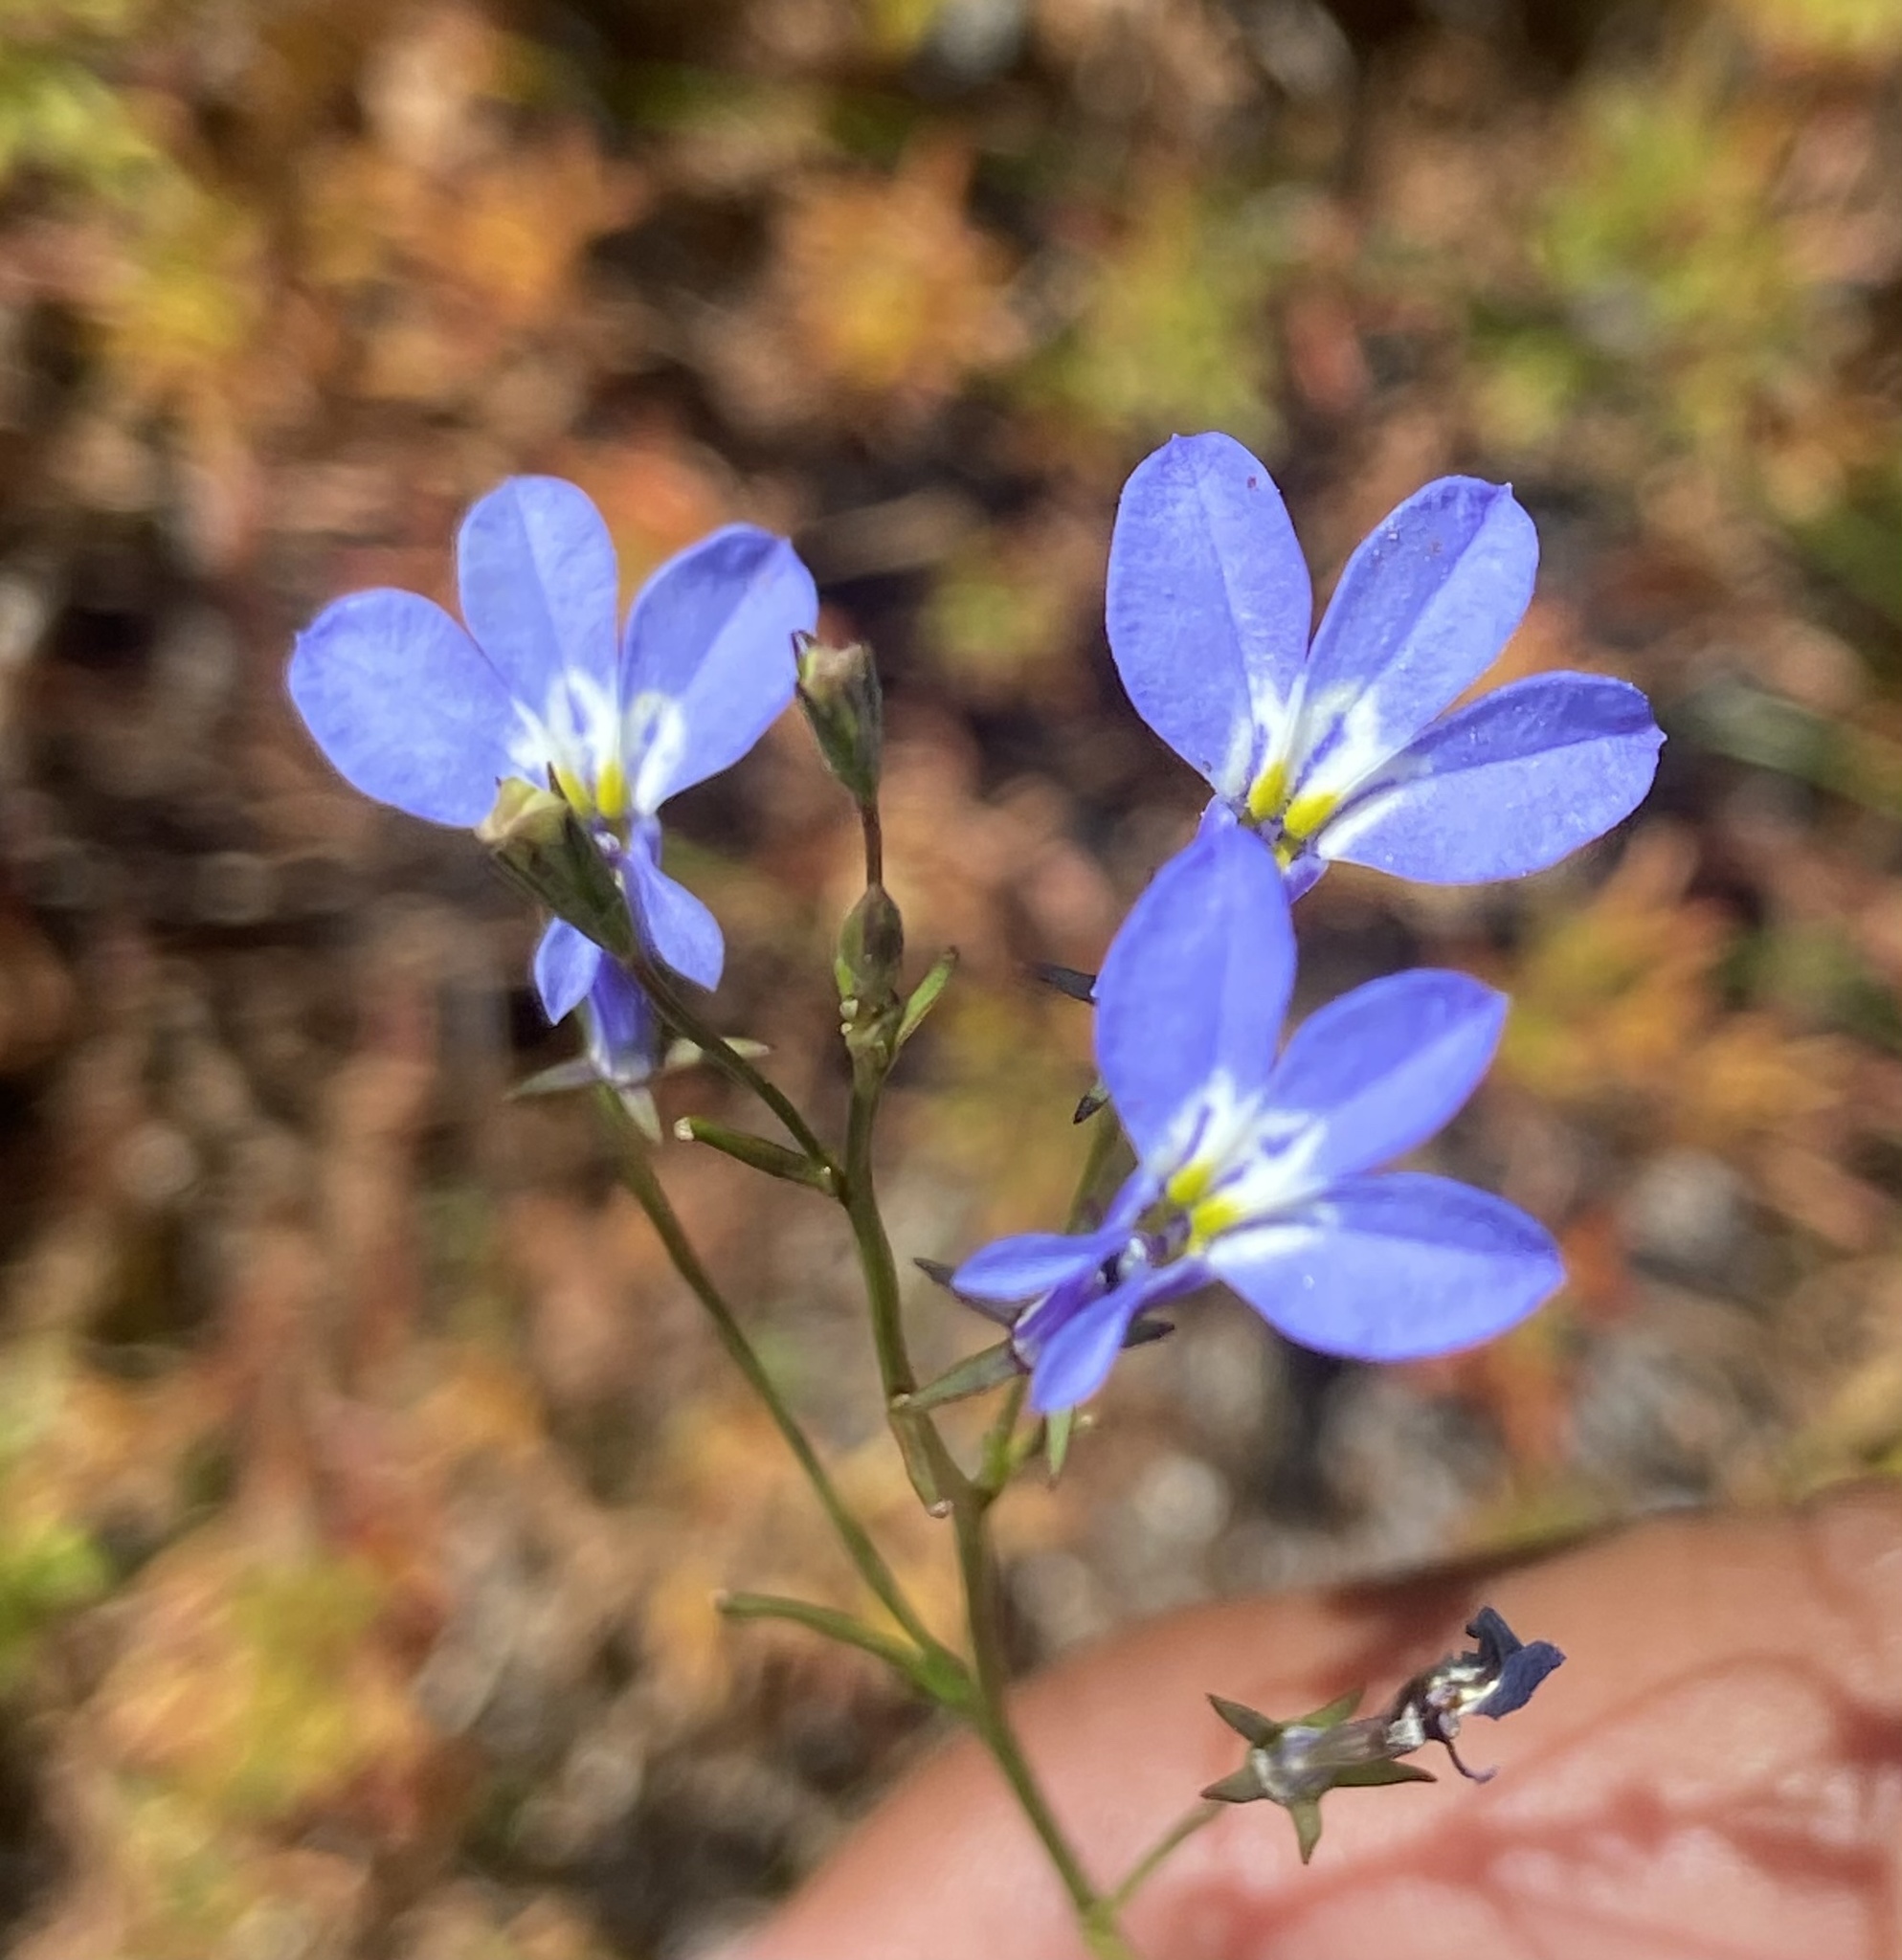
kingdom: Plantae
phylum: Tracheophyta
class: Magnoliopsida
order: Asterales
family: Campanulaceae
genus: Lobelia
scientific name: Lobelia erinus
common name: Edging lobelia
